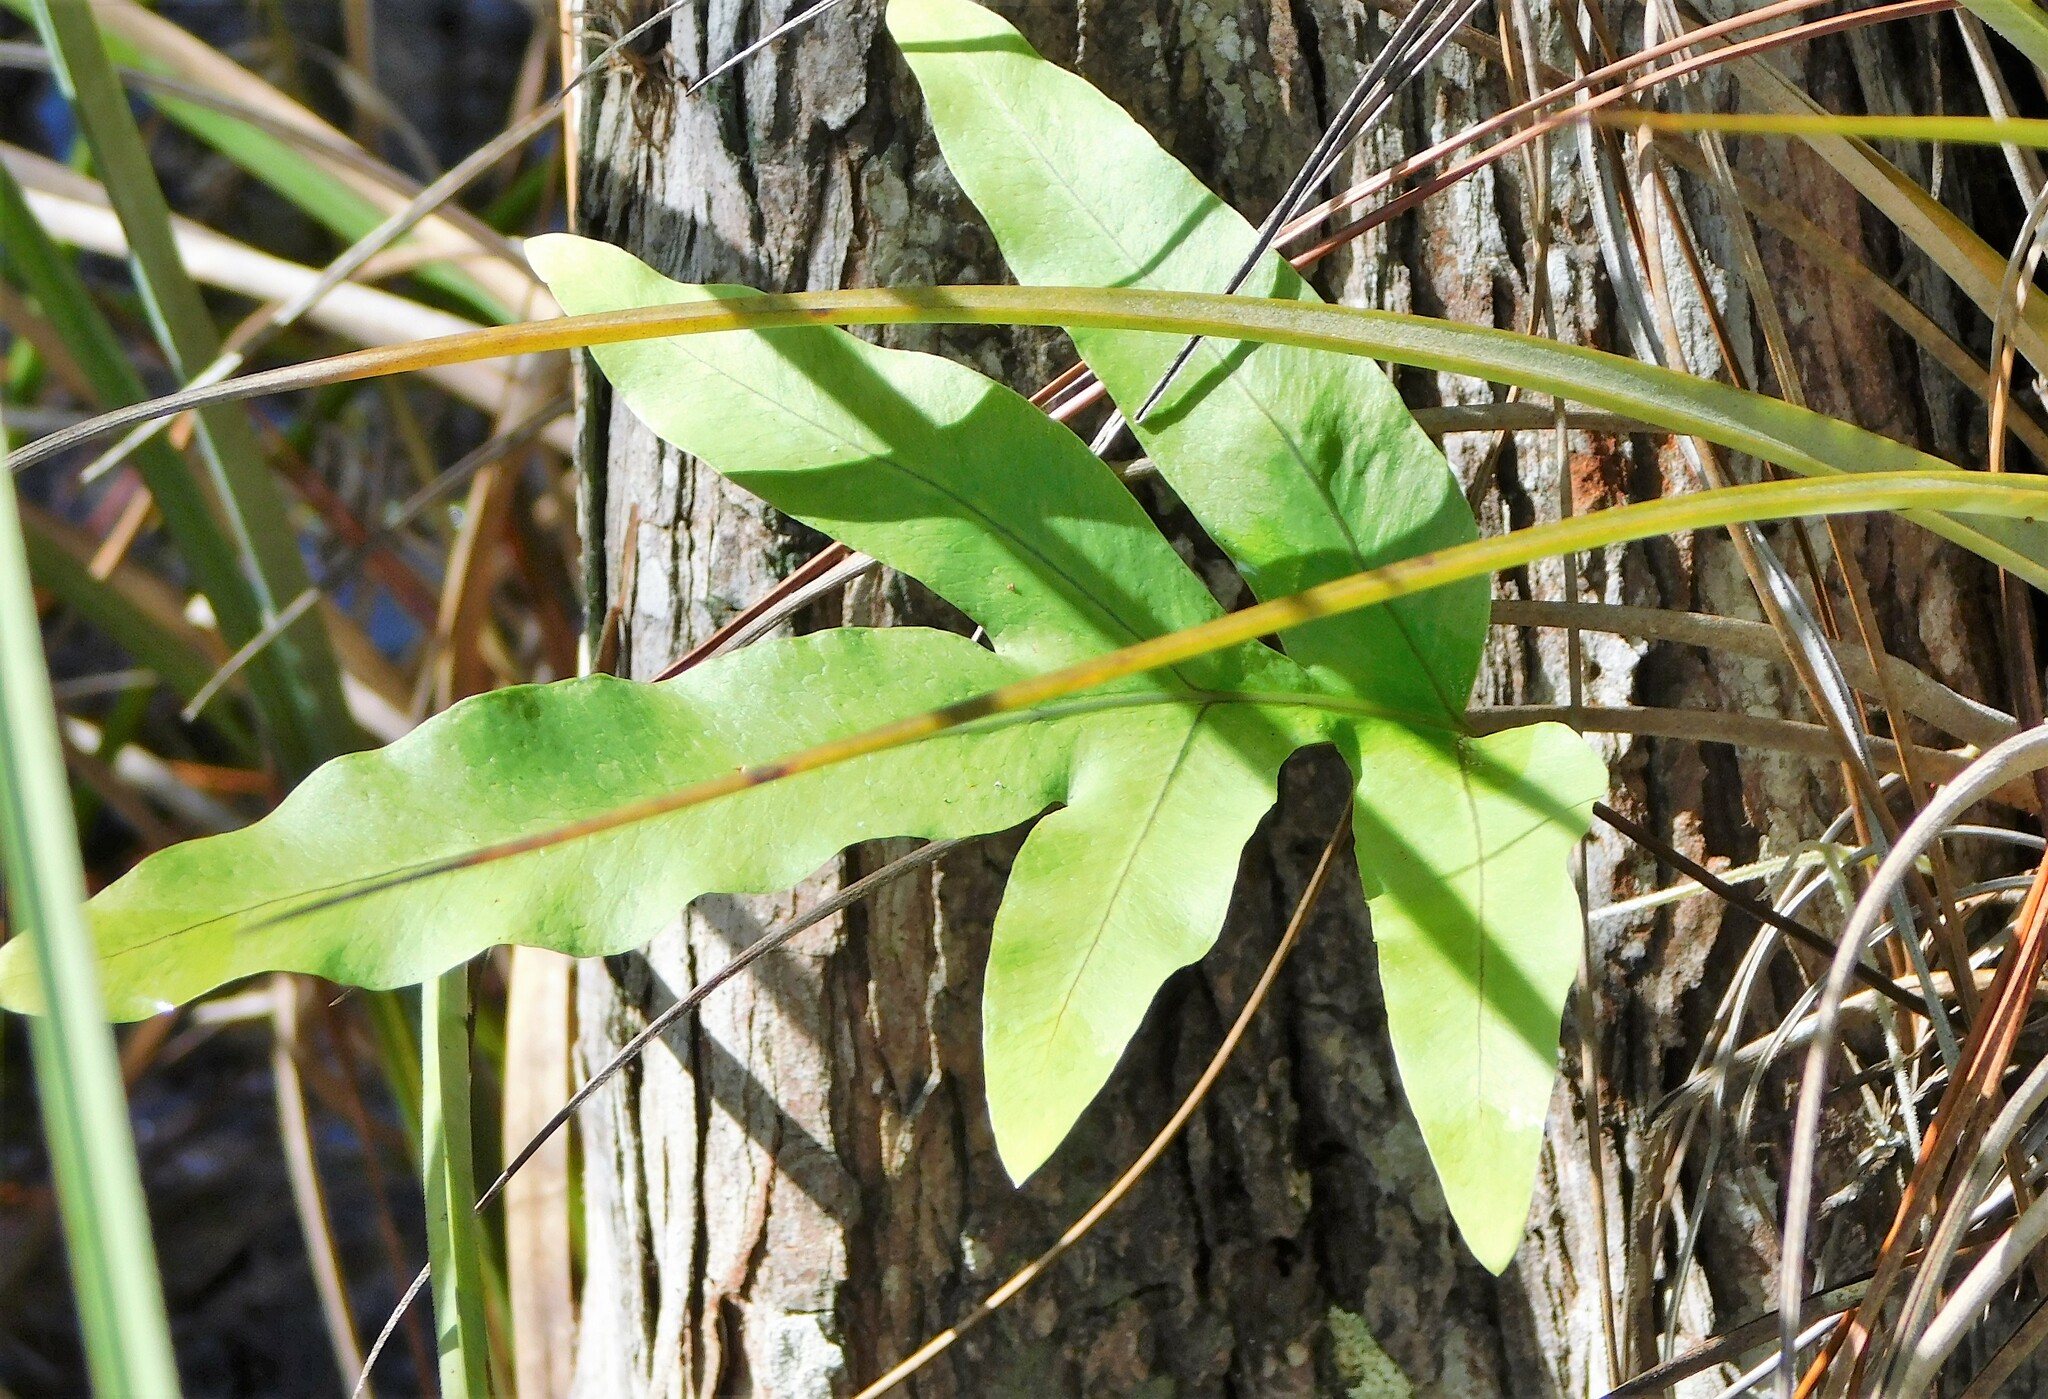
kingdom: Plantae
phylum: Tracheophyta
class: Polypodiopsida
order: Polypodiales
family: Polypodiaceae
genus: Phlebodium
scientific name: Phlebodium aureum
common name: Gold-foot fern
